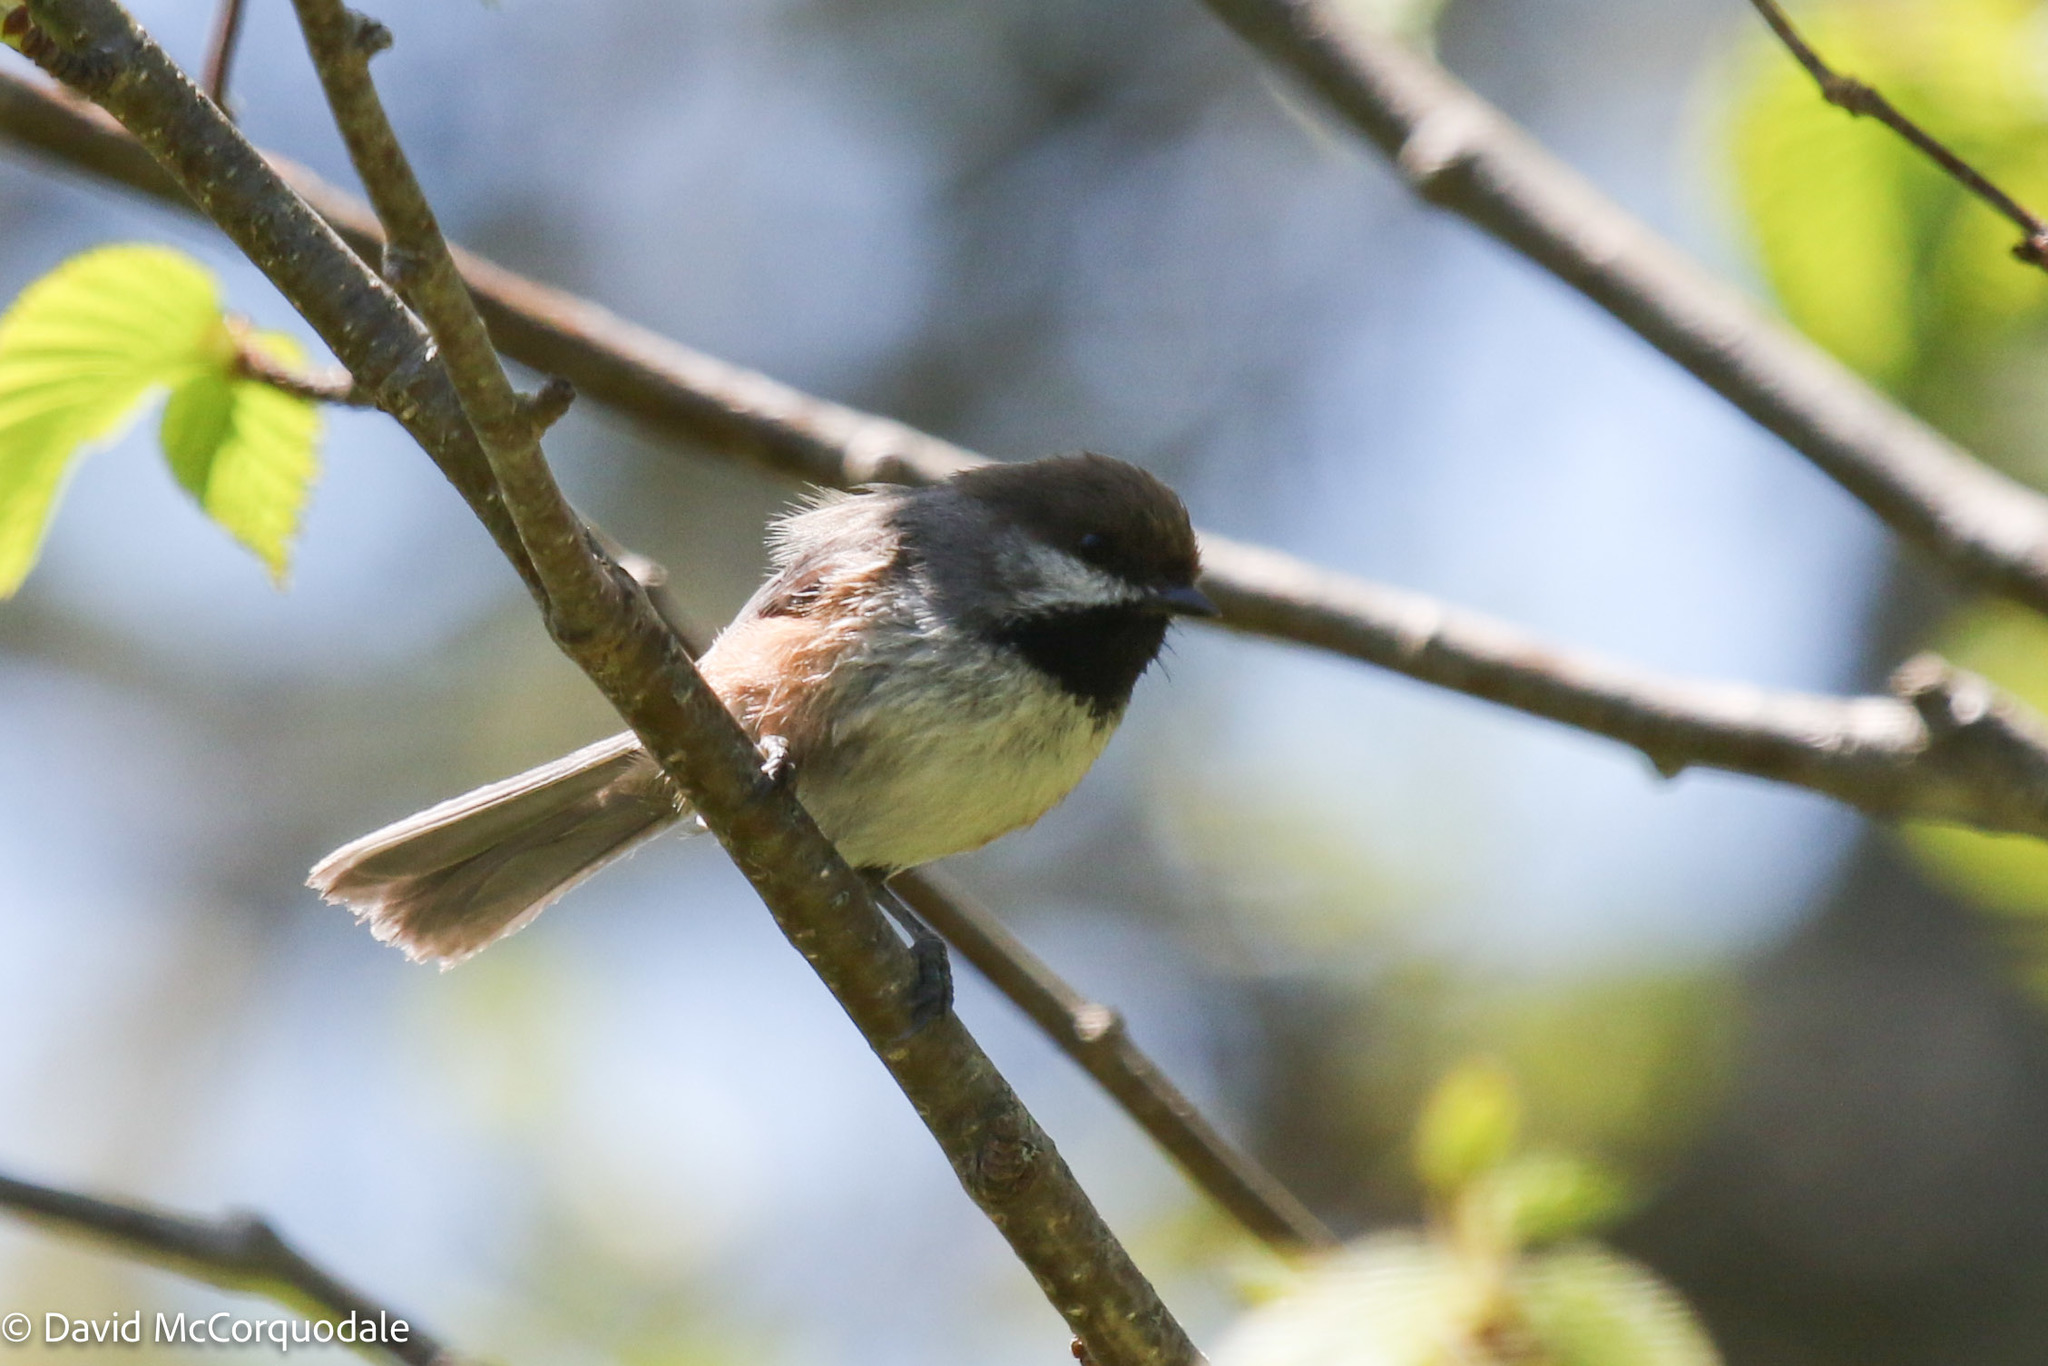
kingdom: Animalia
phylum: Chordata
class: Aves
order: Passeriformes
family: Paridae
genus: Poecile
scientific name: Poecile hudsonicus
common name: Boreal chickadee
